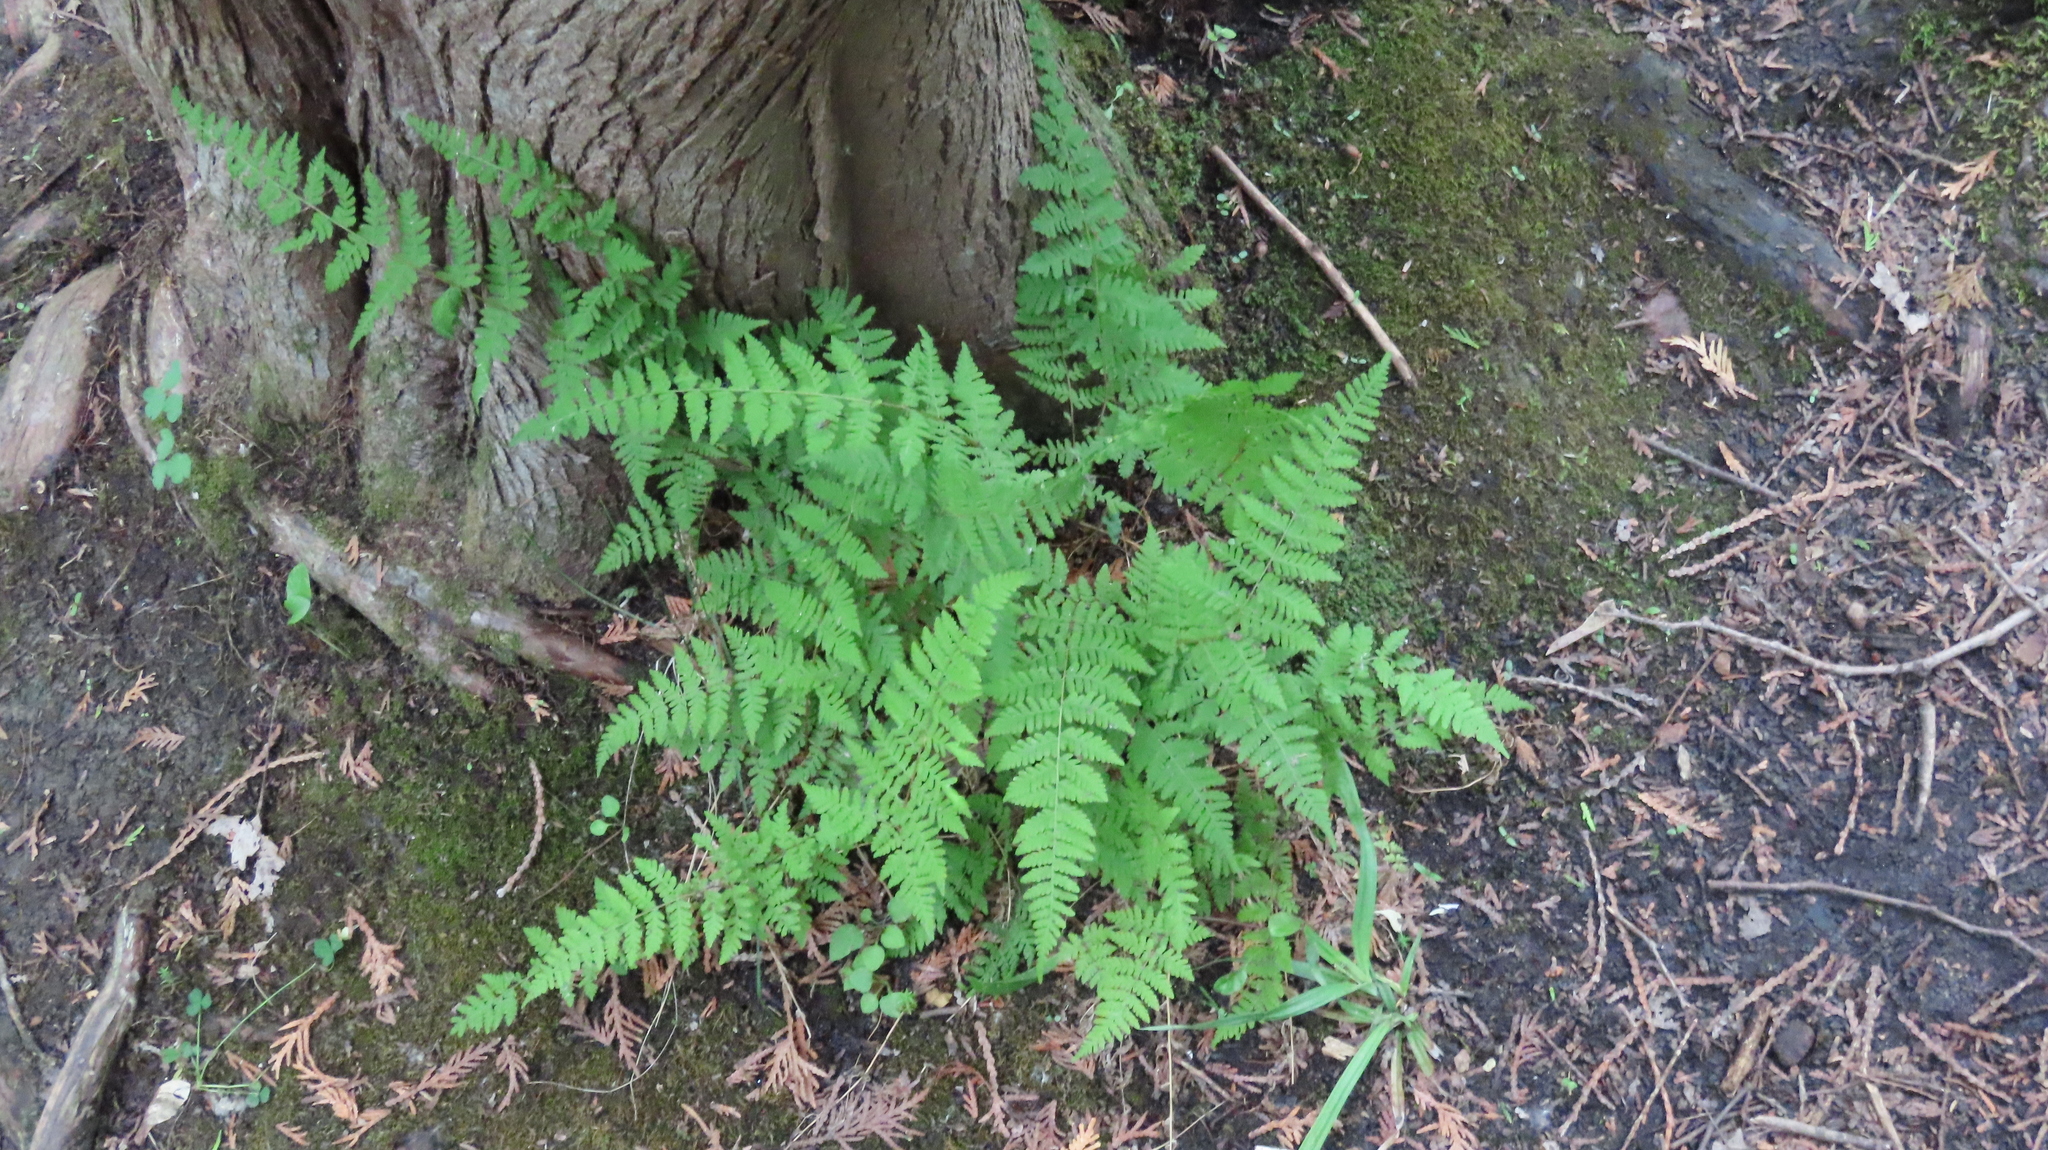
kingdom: Plantae
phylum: Tracheophyta
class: Polypodiopsida
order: Polypodiales
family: Cystopteridaceae
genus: Cystopteris
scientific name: Cystopteris bulbifera
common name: Bulblet bladder fern
